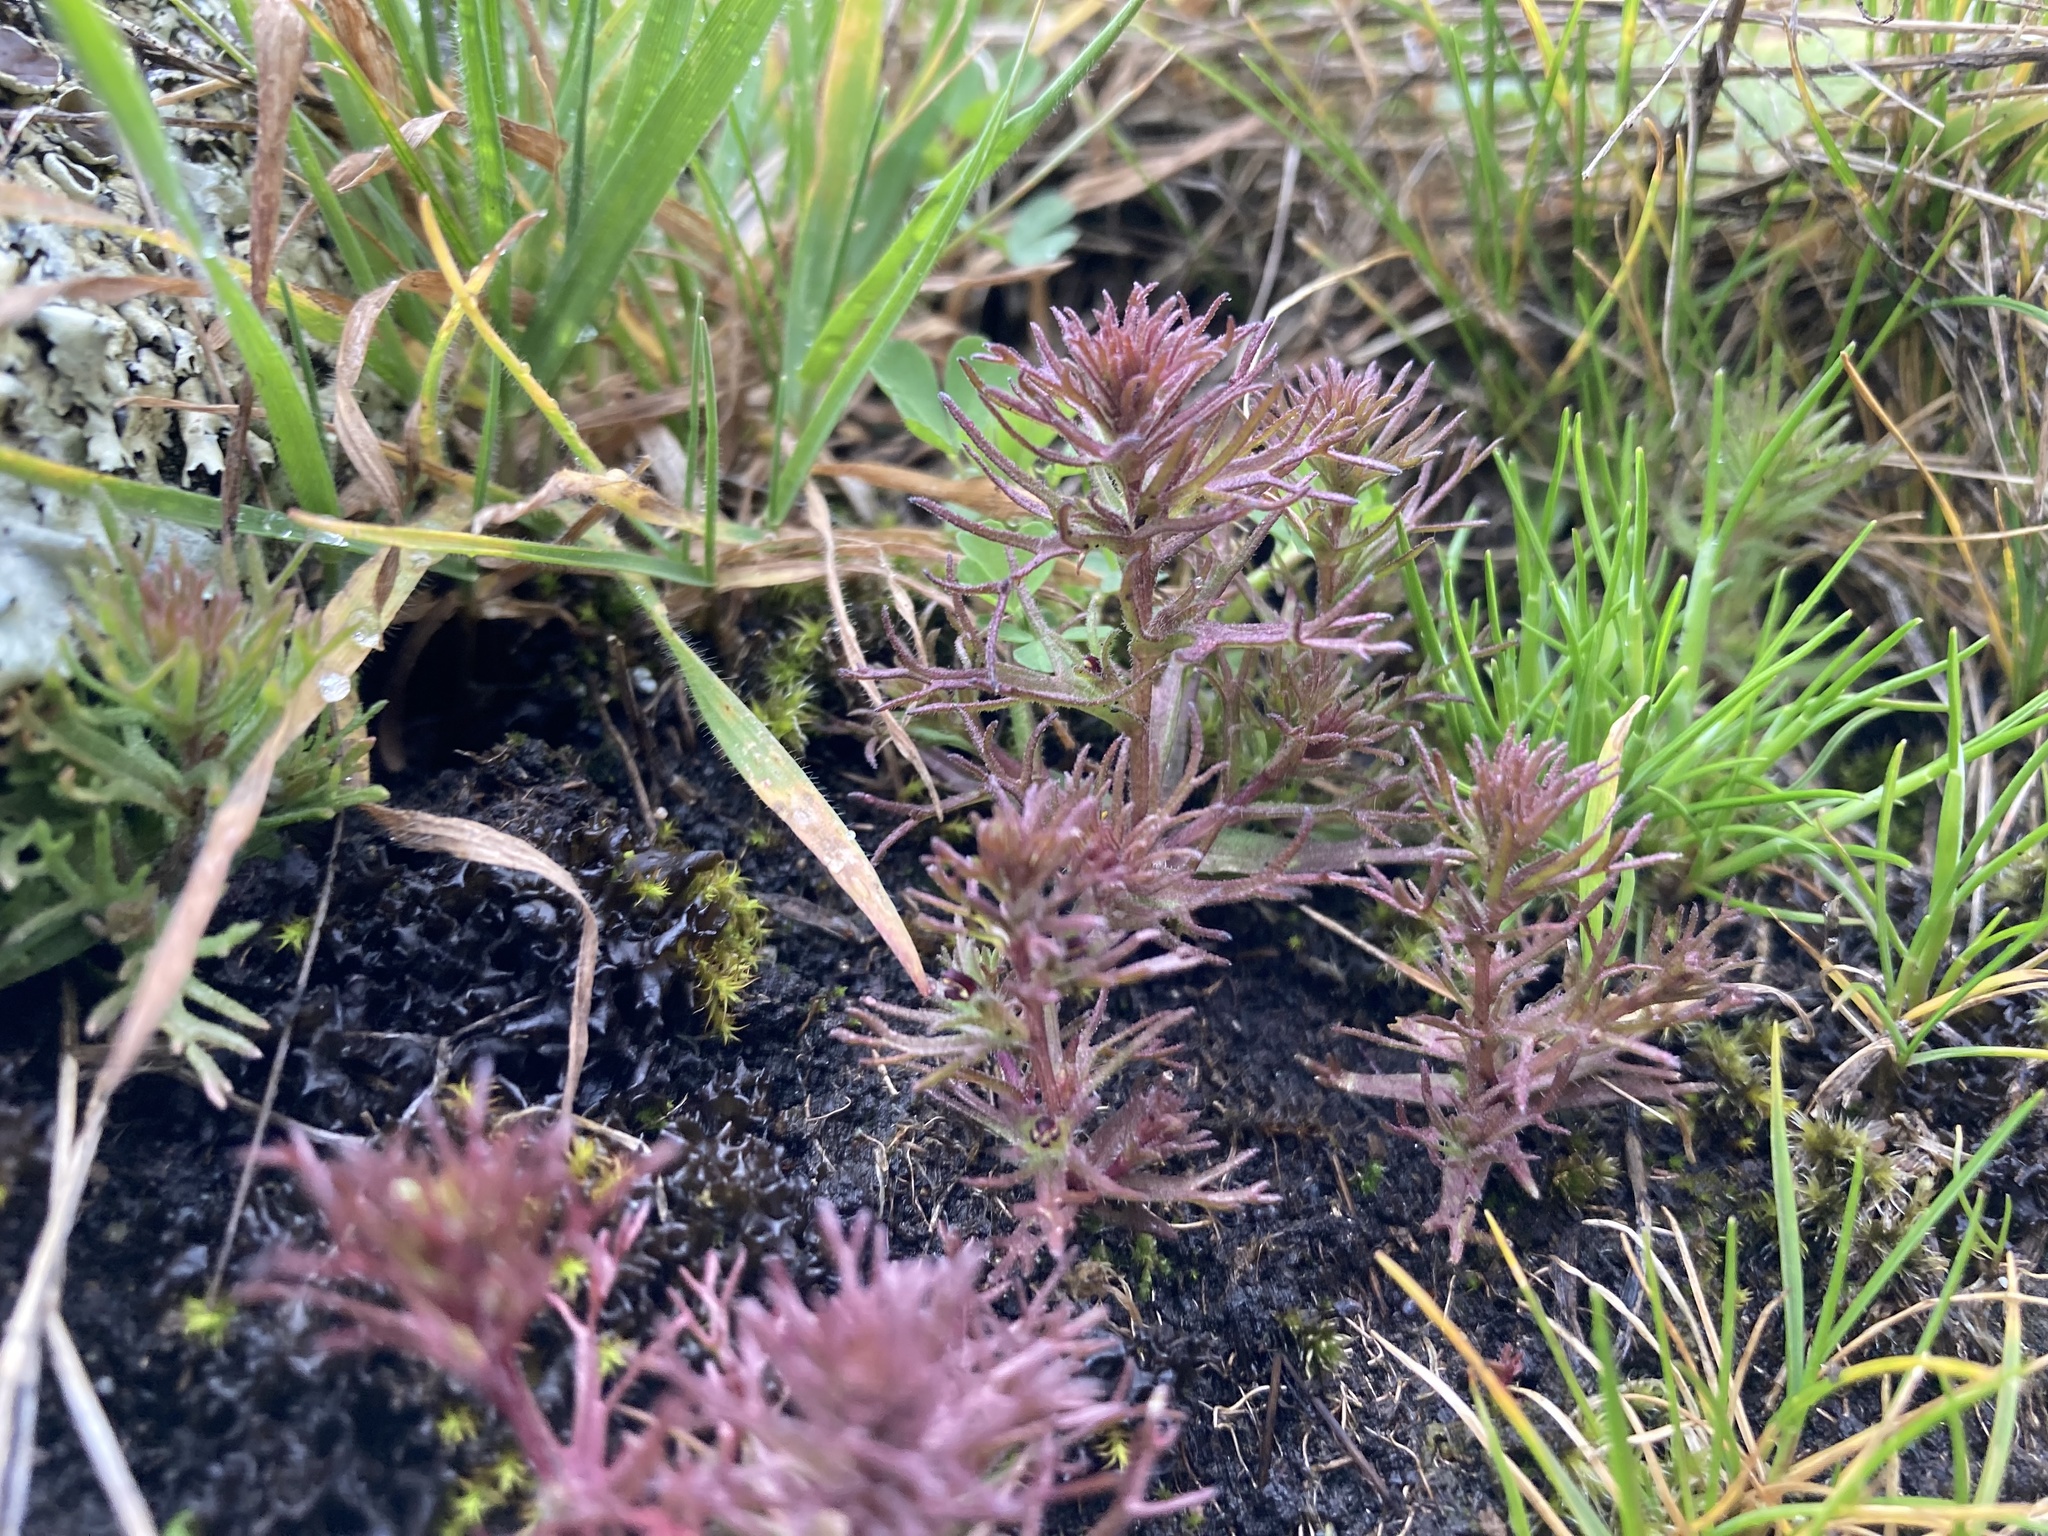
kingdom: Plantae
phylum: Tracheophyta
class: Magnoliopsida
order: Lamiales
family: Orobanchaceae
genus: Triphysaria
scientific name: Triphysaria pusilla
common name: Dwarf false owl-clover
